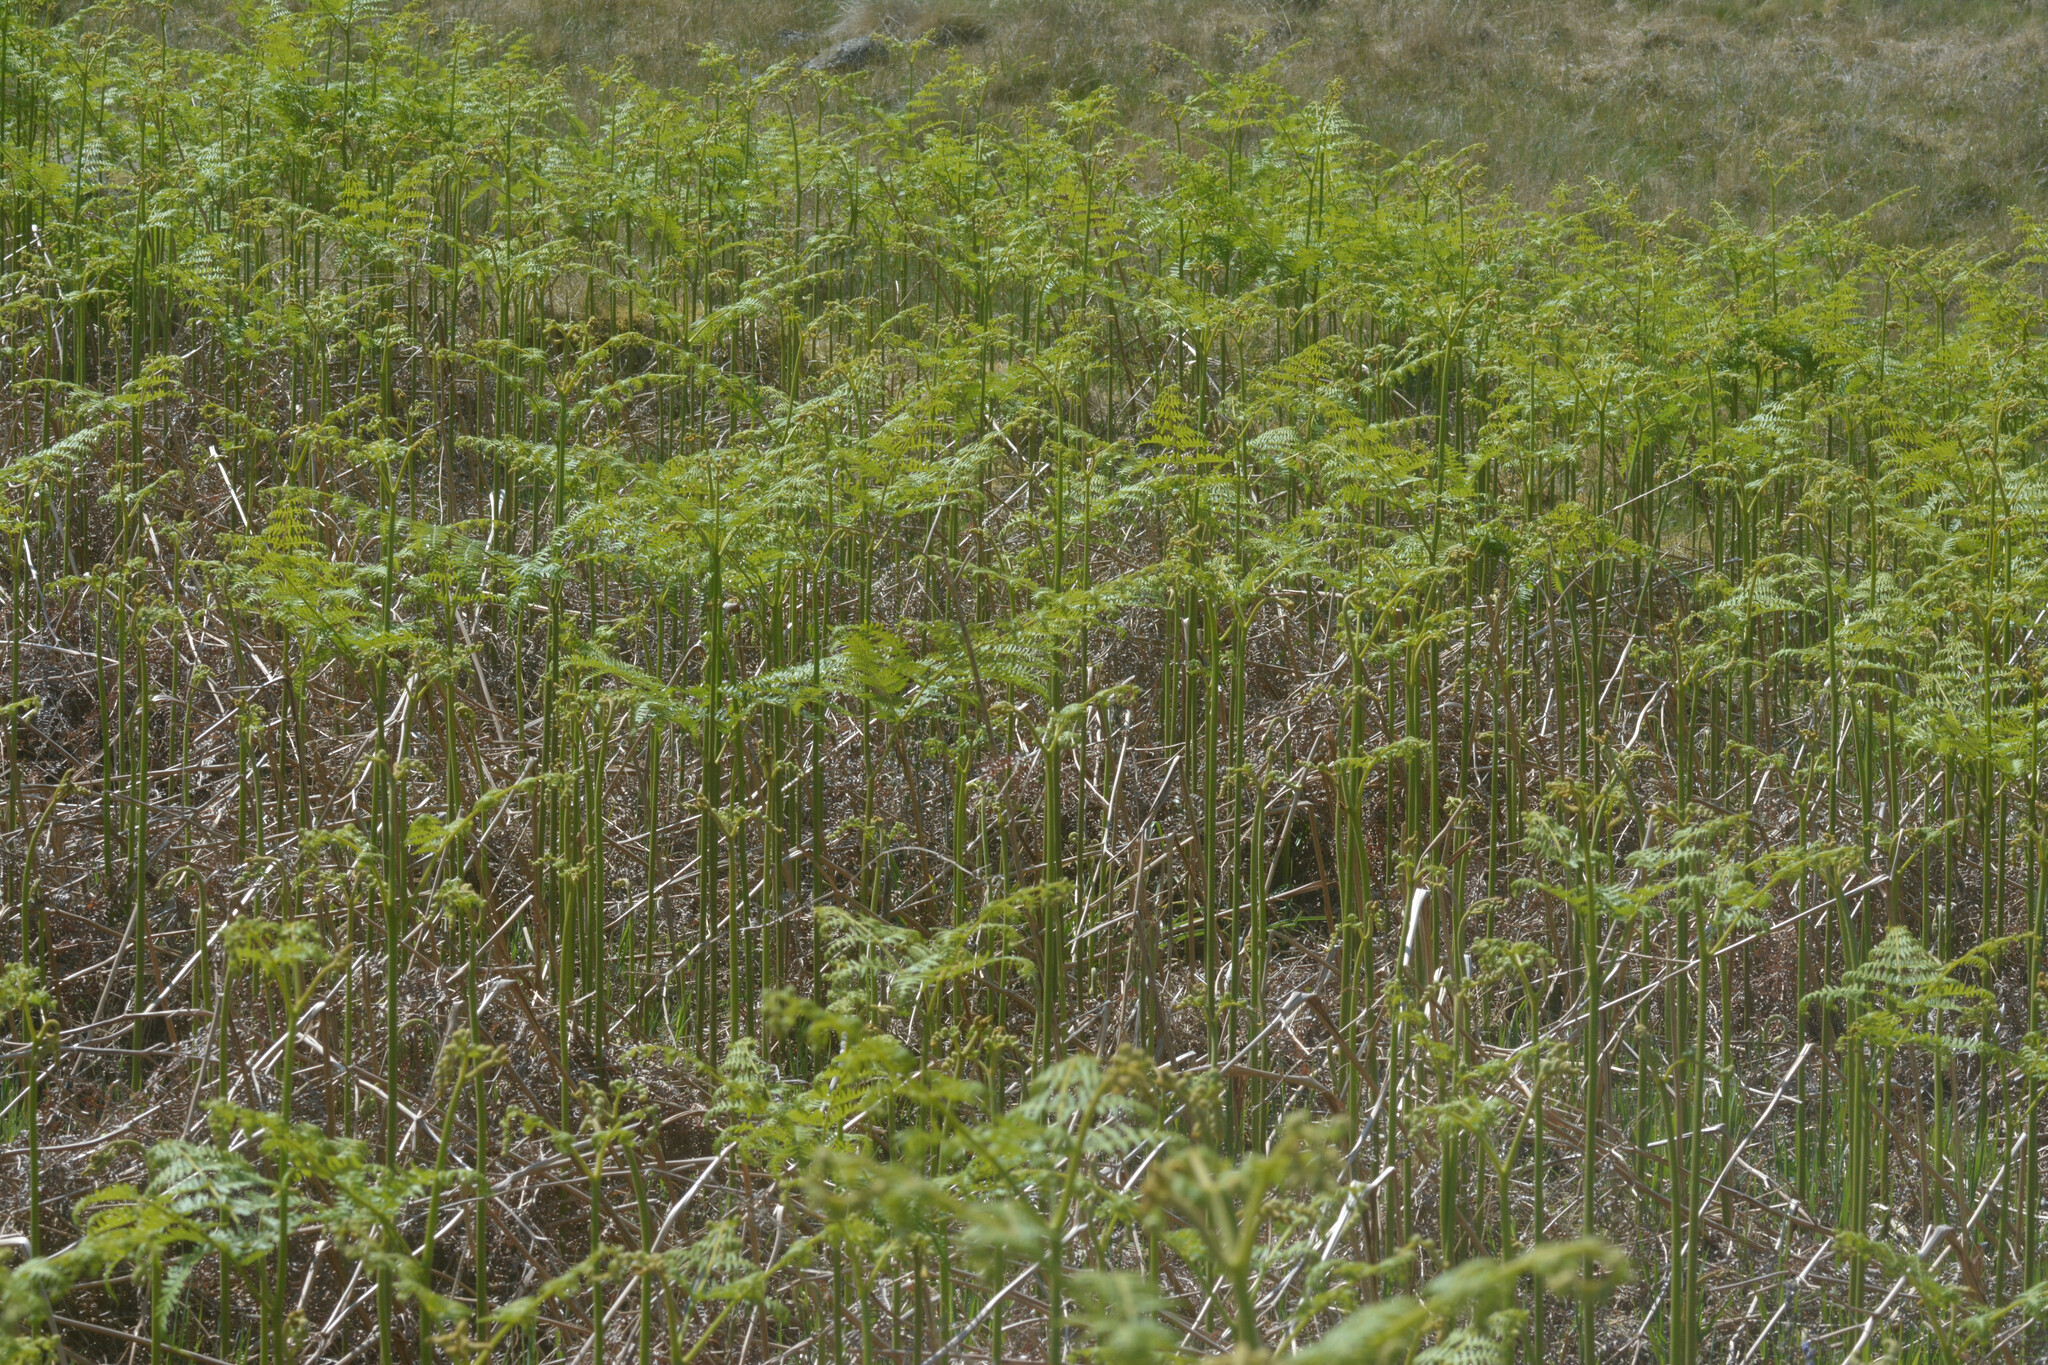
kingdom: Plantae
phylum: Tracheophyta
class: Polypodiopsida
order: Polypodiales
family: Dennstaedtiaceae
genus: Pteridium
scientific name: Pteridium aquilinum
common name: Bracken
